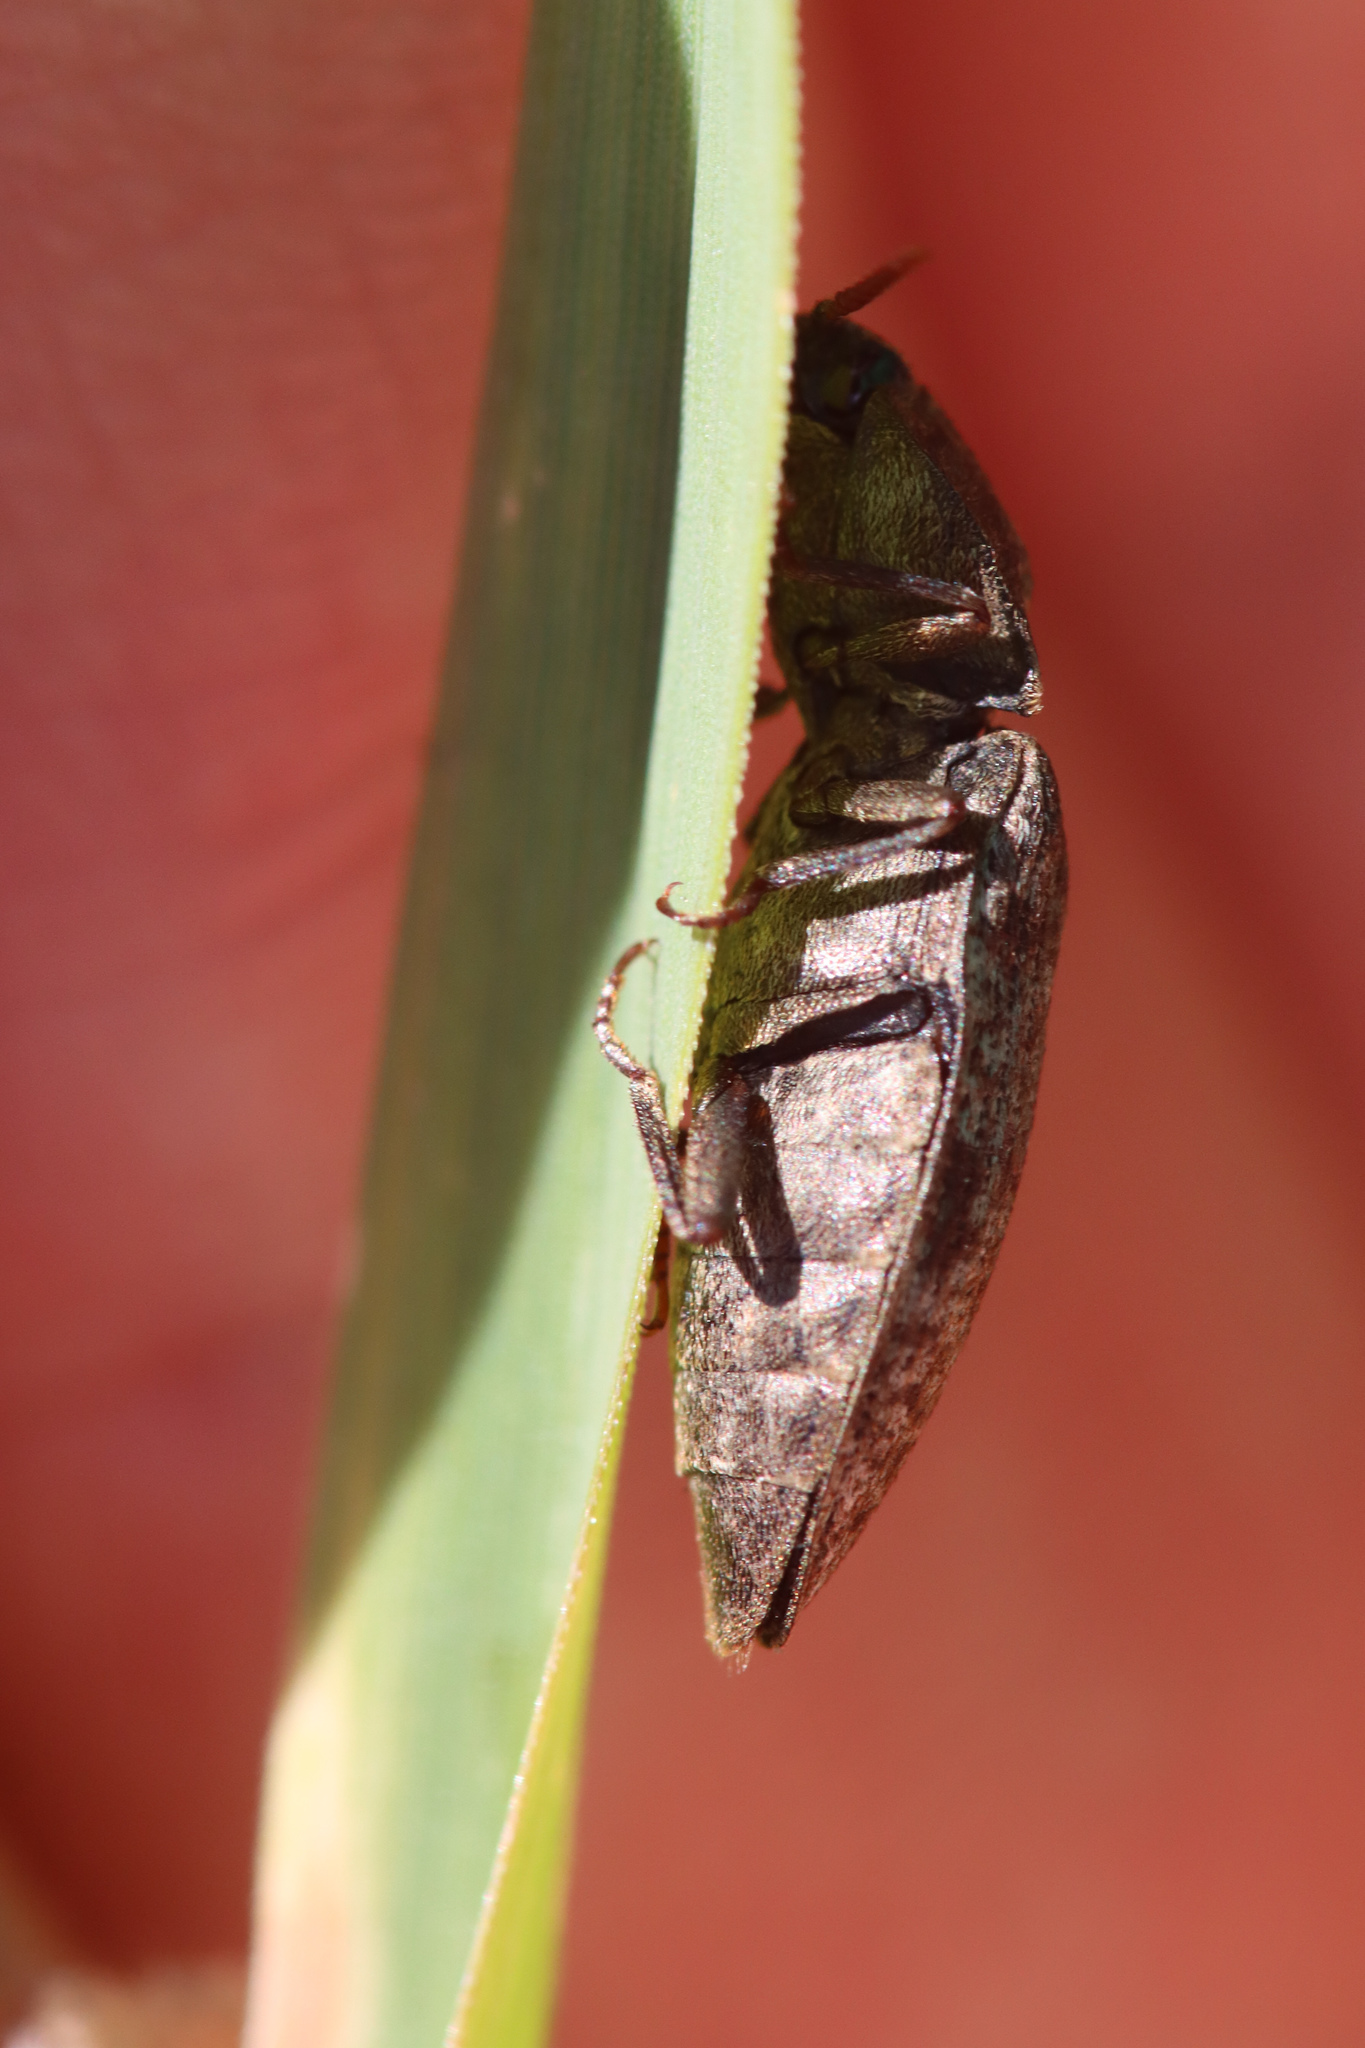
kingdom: Animalia
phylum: Arthropoda
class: Insecta
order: Coleoptera
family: Elateridae
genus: Agrypnus
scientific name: Agrypnus murinus
